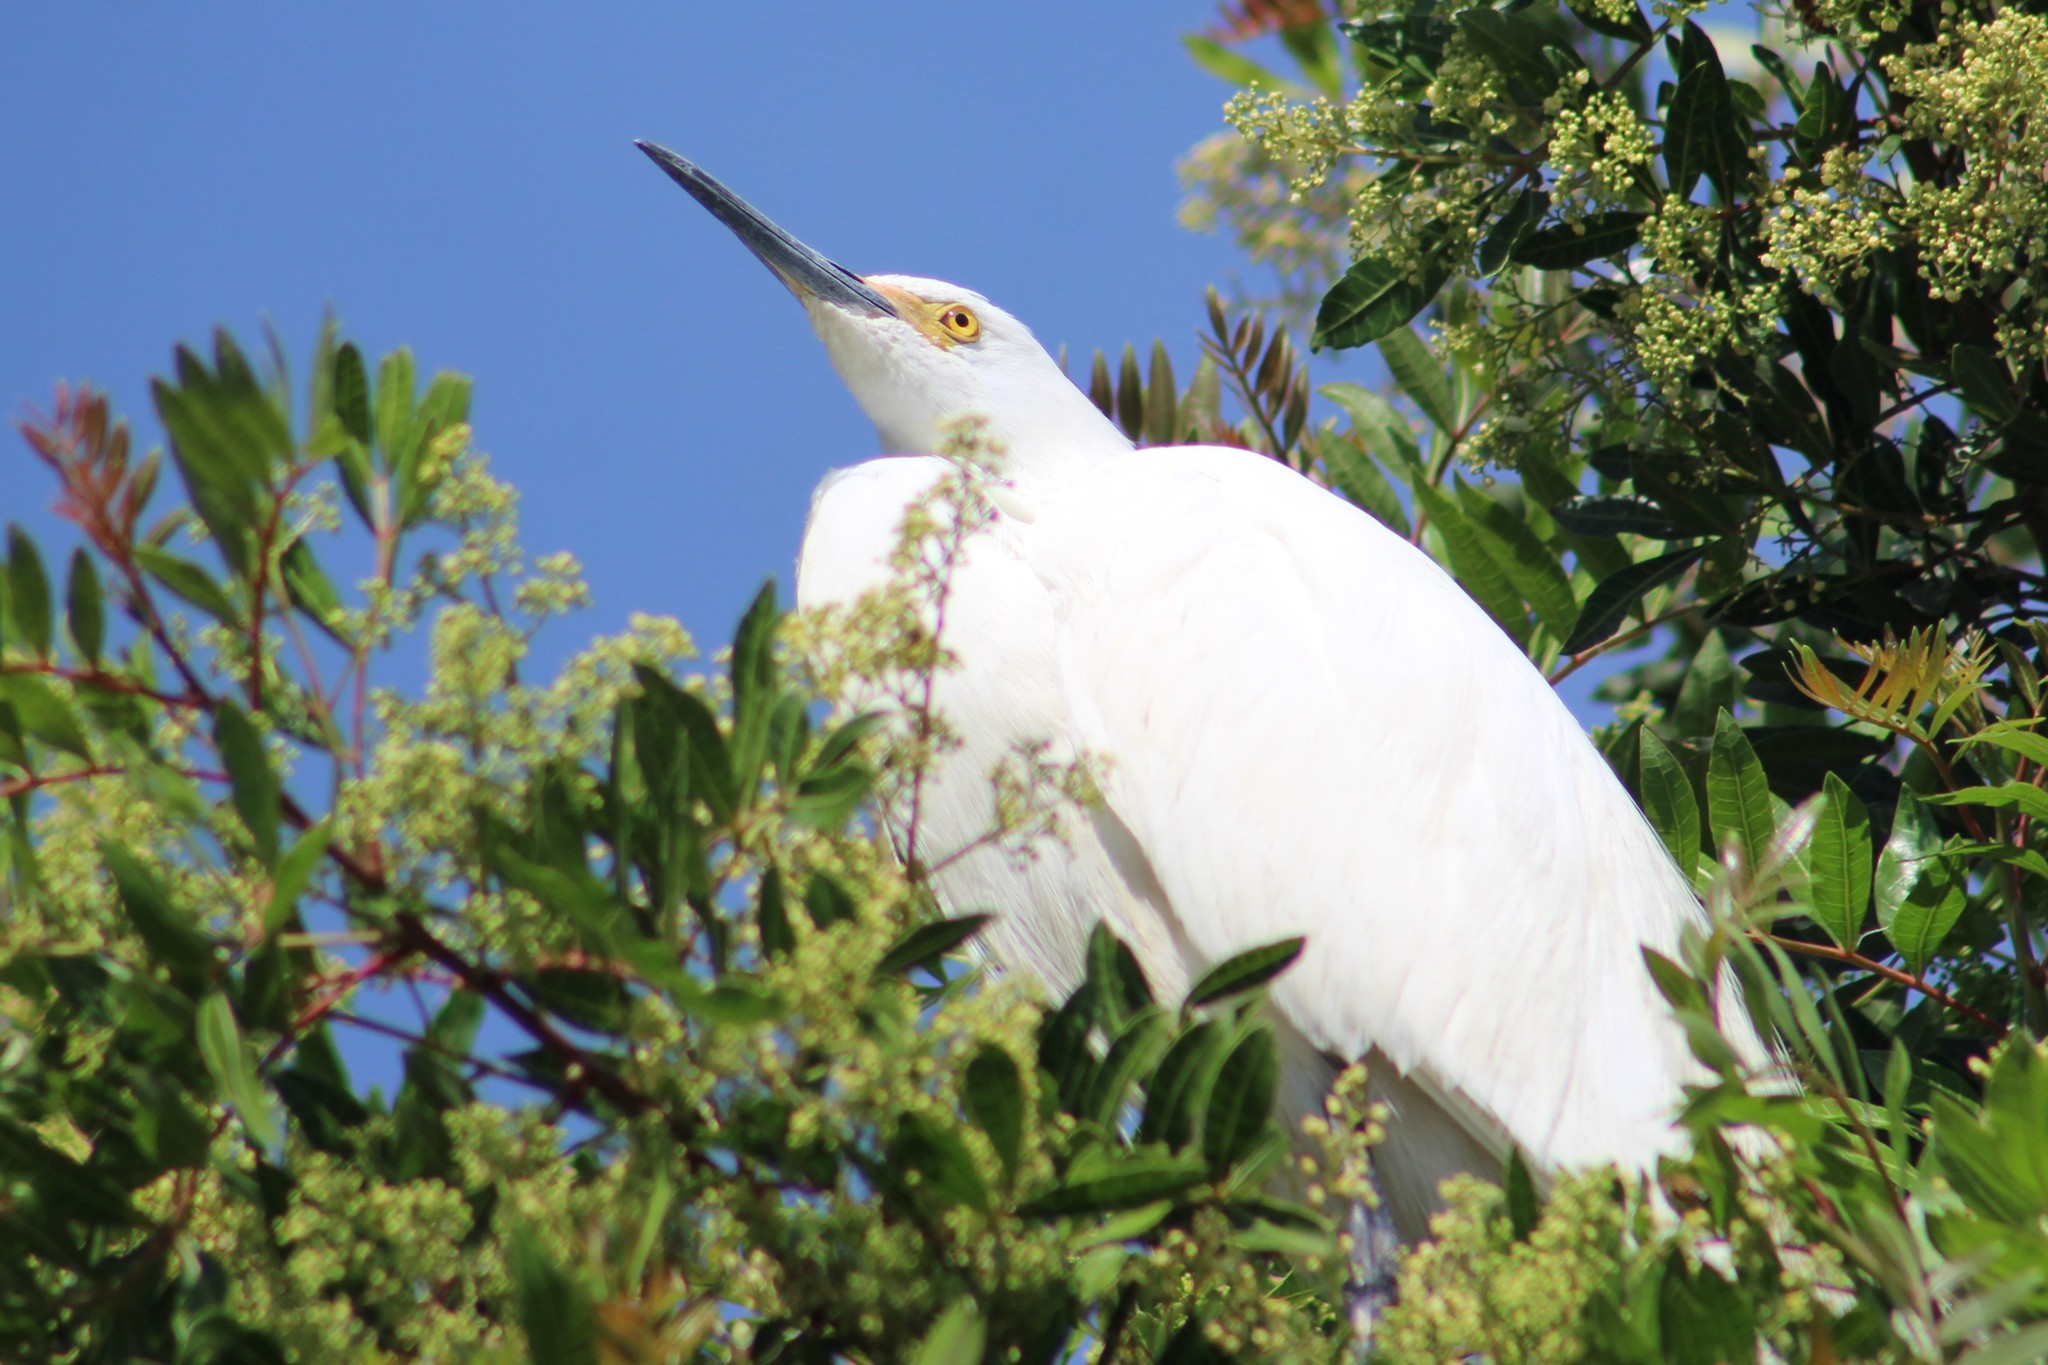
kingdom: Animalia
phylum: Chordata
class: Aves
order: Pelecaniformes
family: Ardeidae
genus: Egretta
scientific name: Egretta thula
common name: Snowy egret
